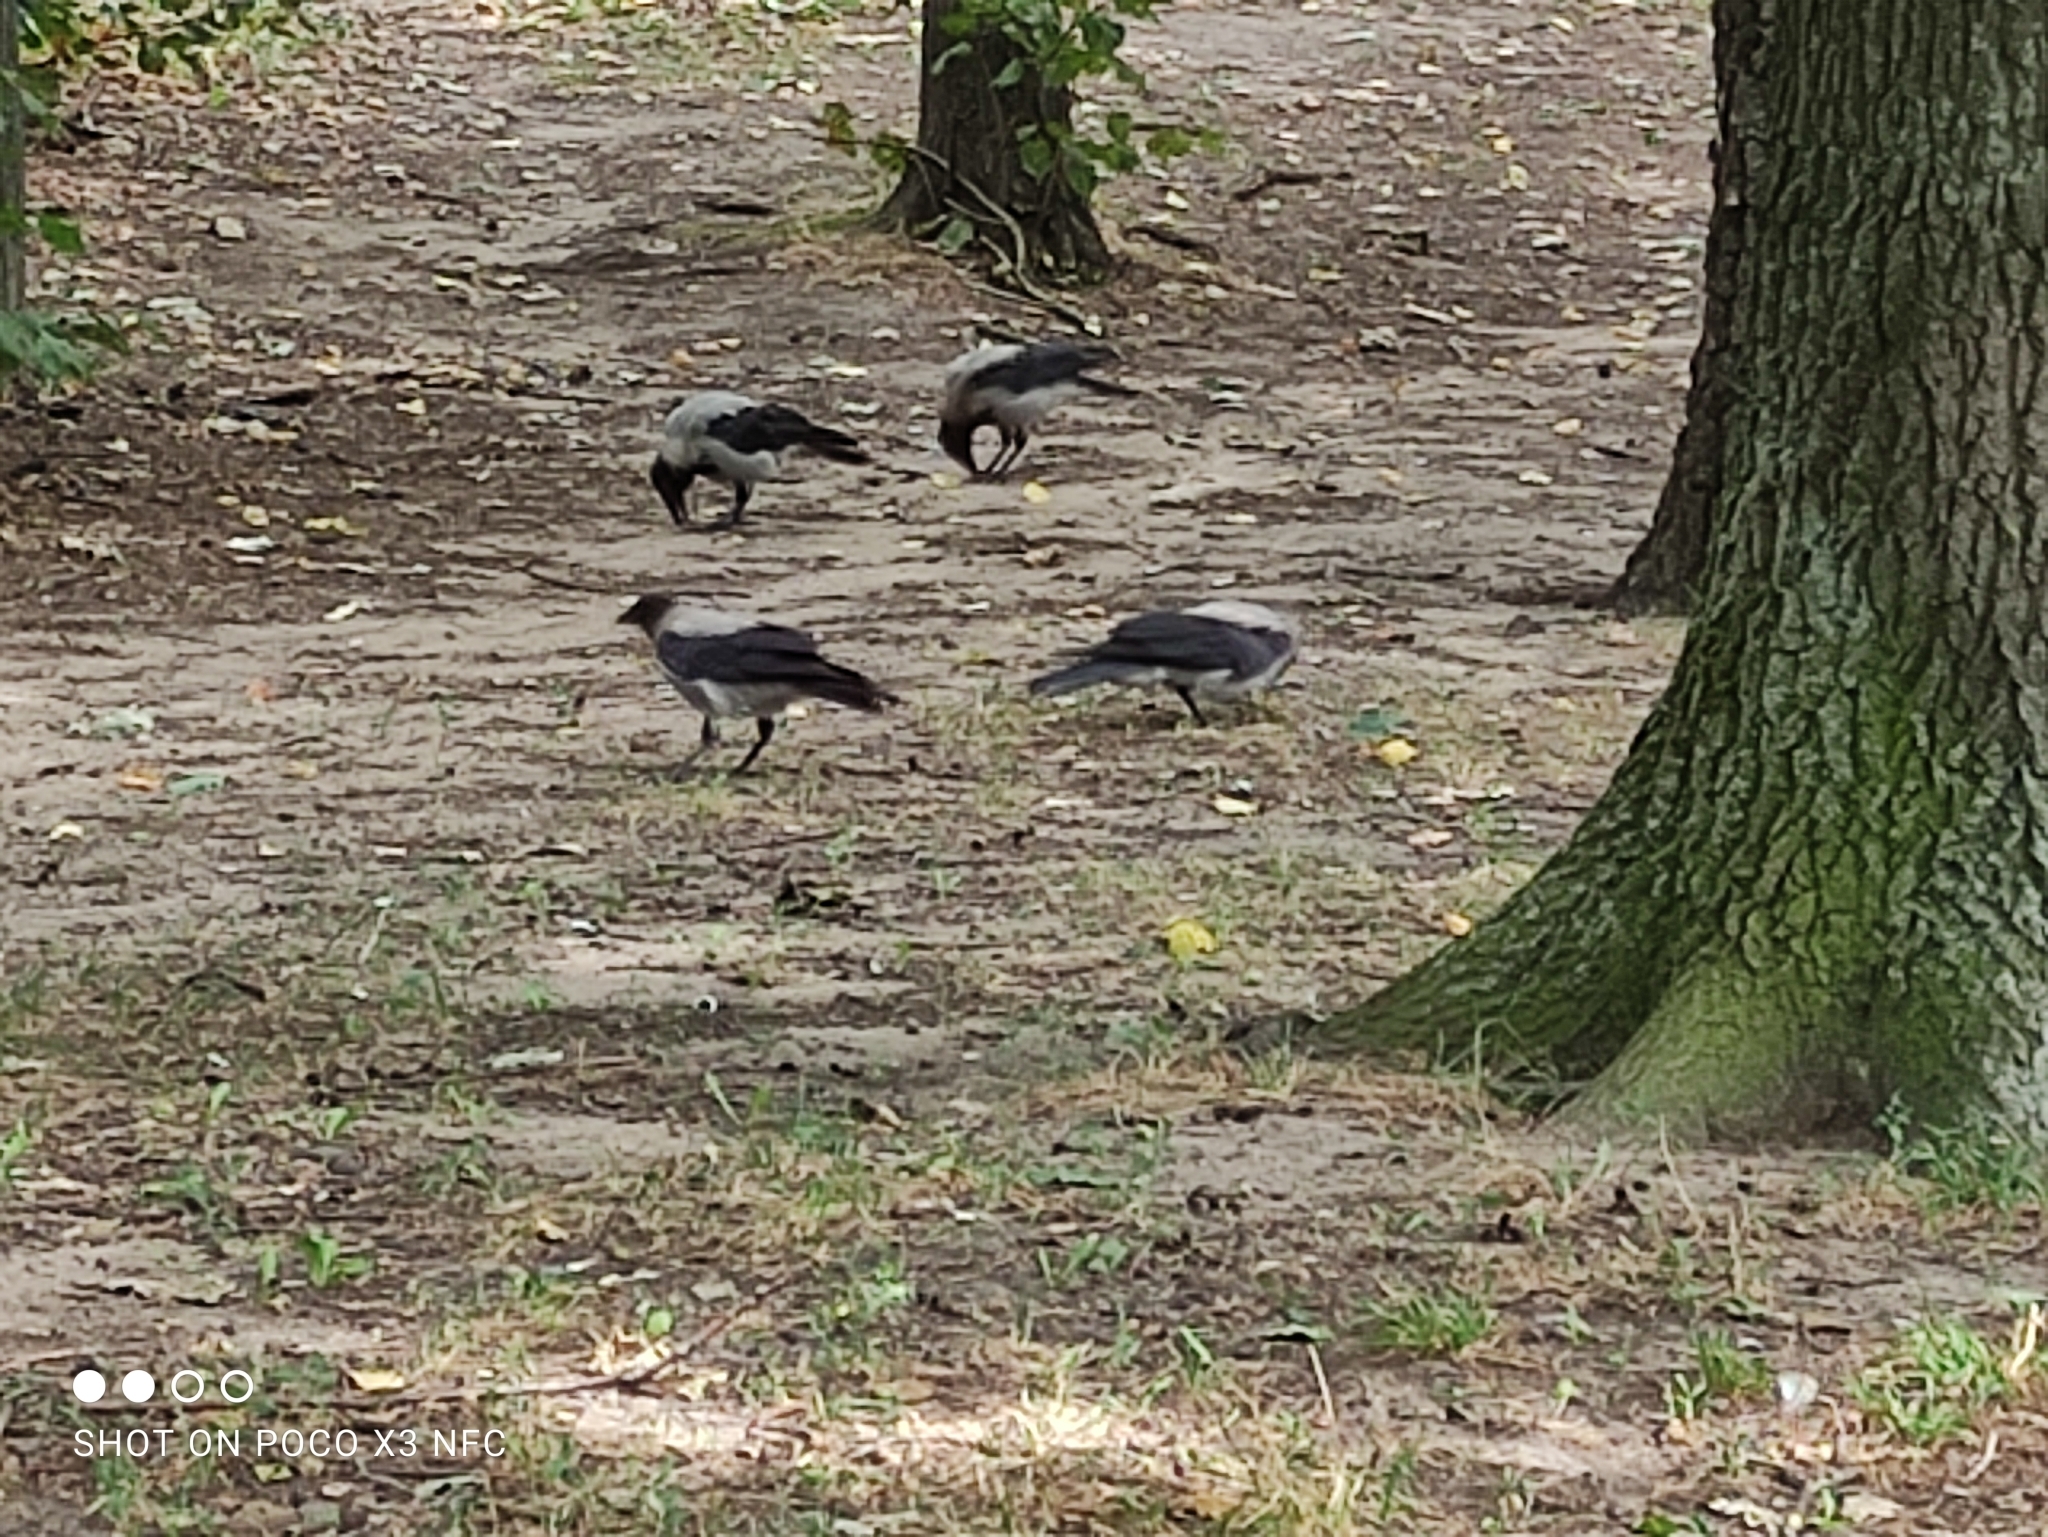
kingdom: Animalia
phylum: Chordata
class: Aves
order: Passeriformes
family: Corvidae
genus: Corvus
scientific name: Corvus cornix
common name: Hooded crow
